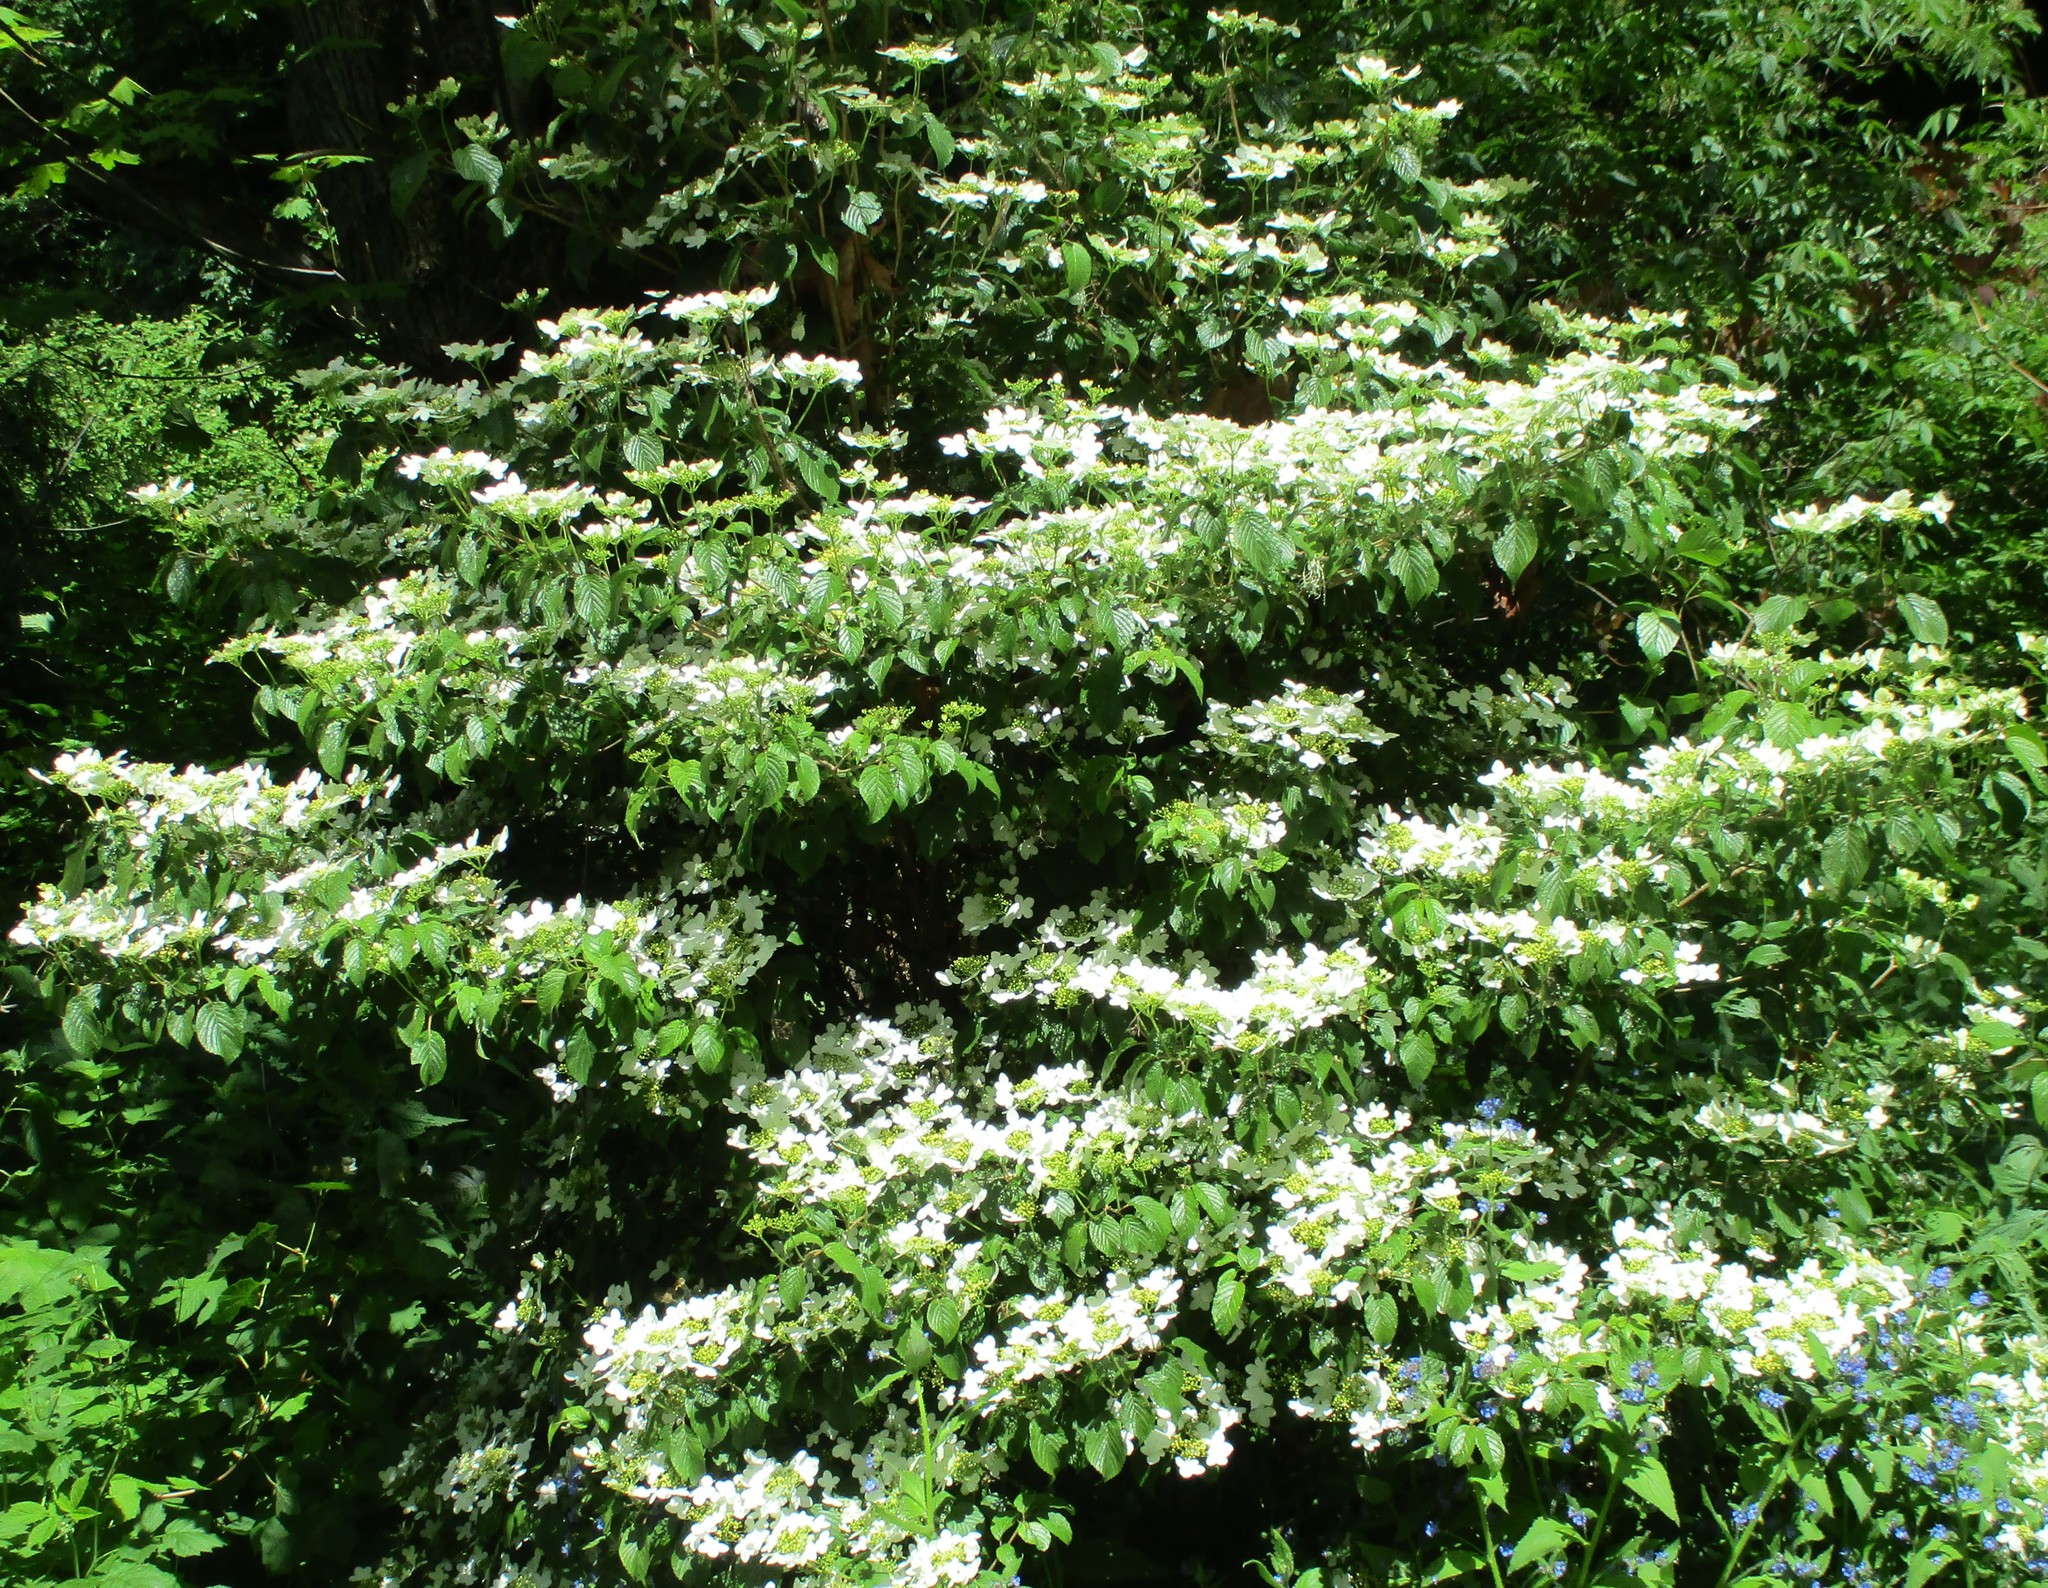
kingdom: Plantae
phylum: Tracheophyta
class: Magnoliopsida
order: Dipsacales
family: Viburnaceae
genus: Viburnum
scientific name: Viburnum plicatum
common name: Japanese snowball
